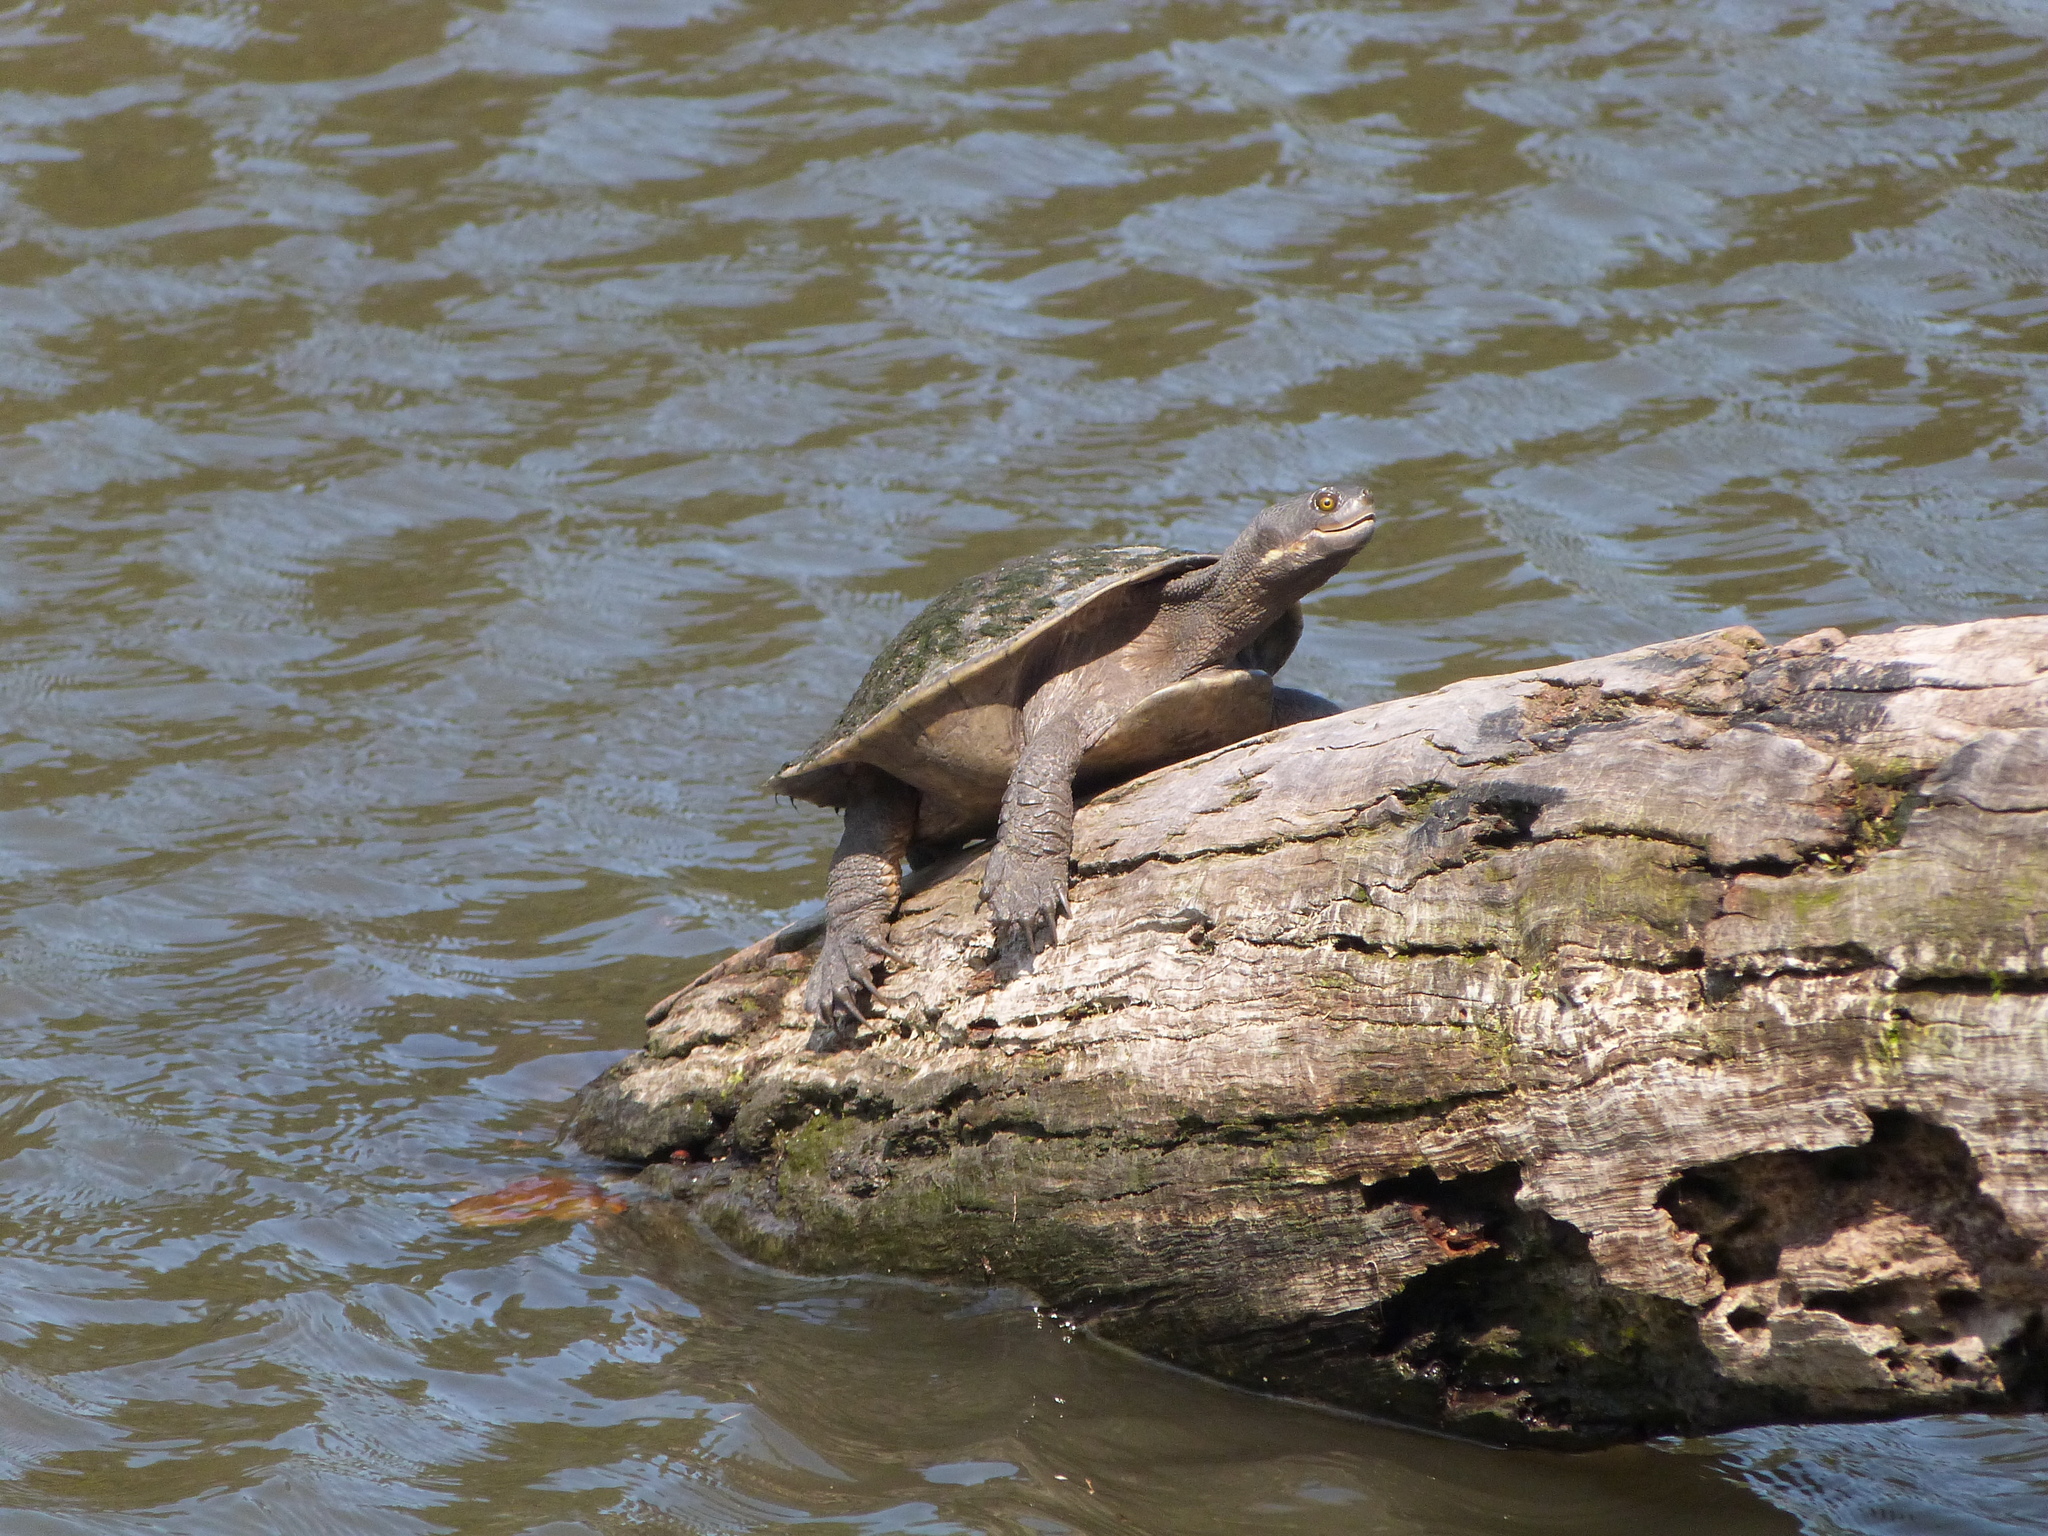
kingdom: Animalia
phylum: Chordata
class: Testudines
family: Chelidae
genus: Emydura
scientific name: Emydura macquarii
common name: Murray river turtle
